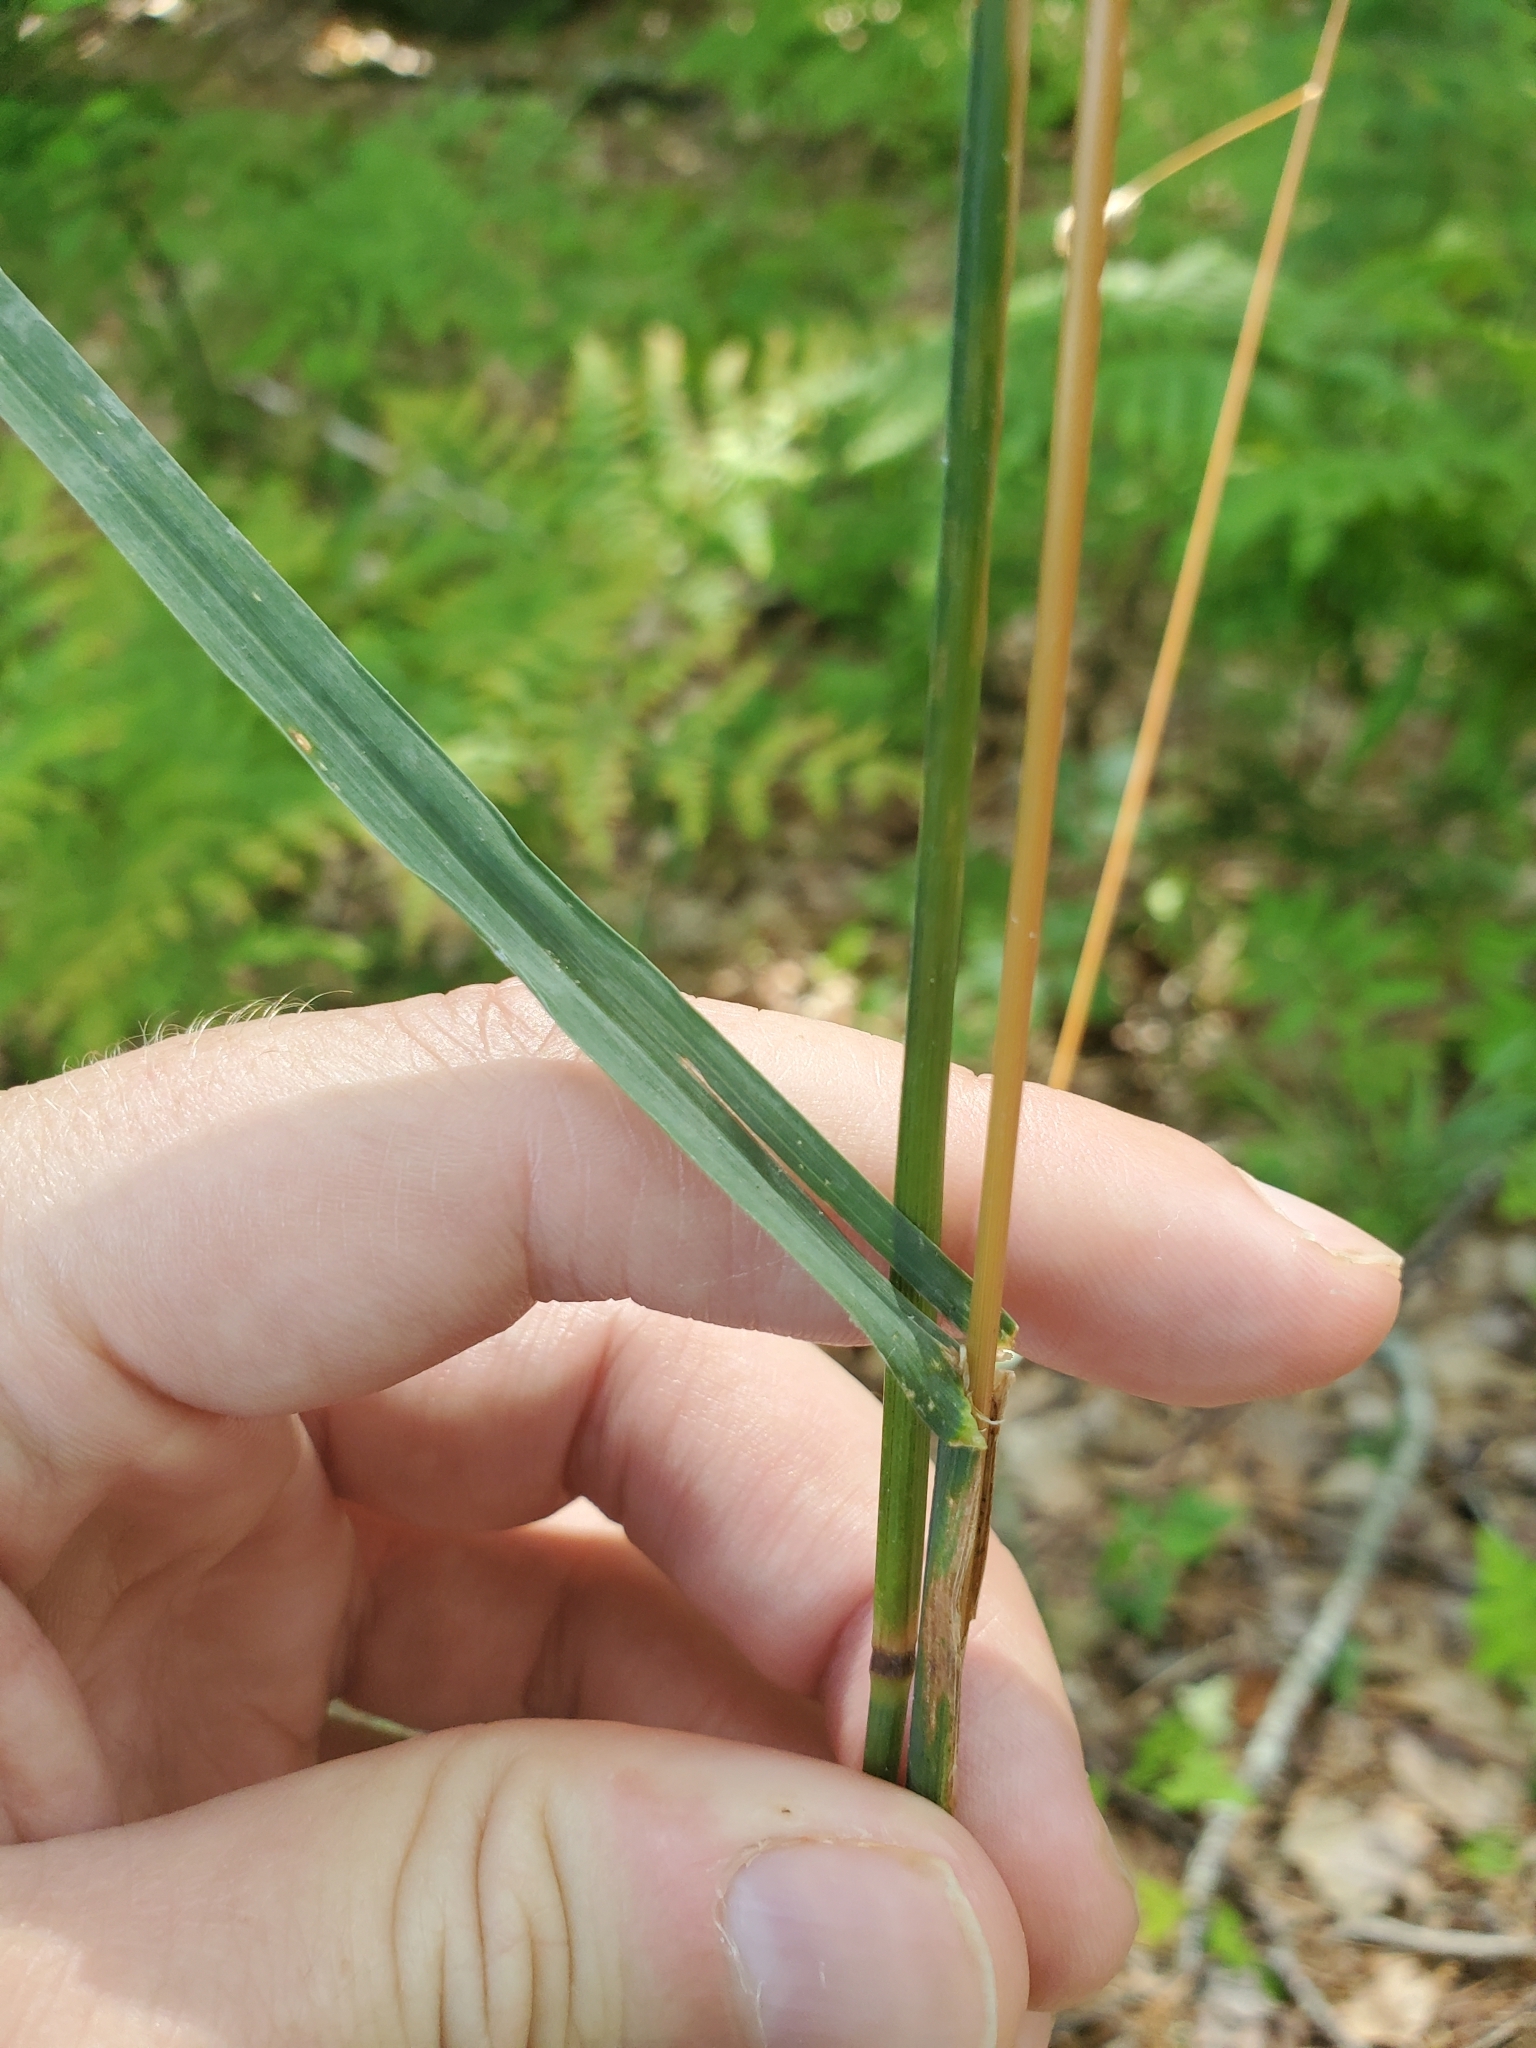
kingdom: Plantae
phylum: Tracheophyta
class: Liliopsida
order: Poales
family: Poaceae
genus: Dactylis
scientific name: Dactylis glomerata
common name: Orchardgrass
